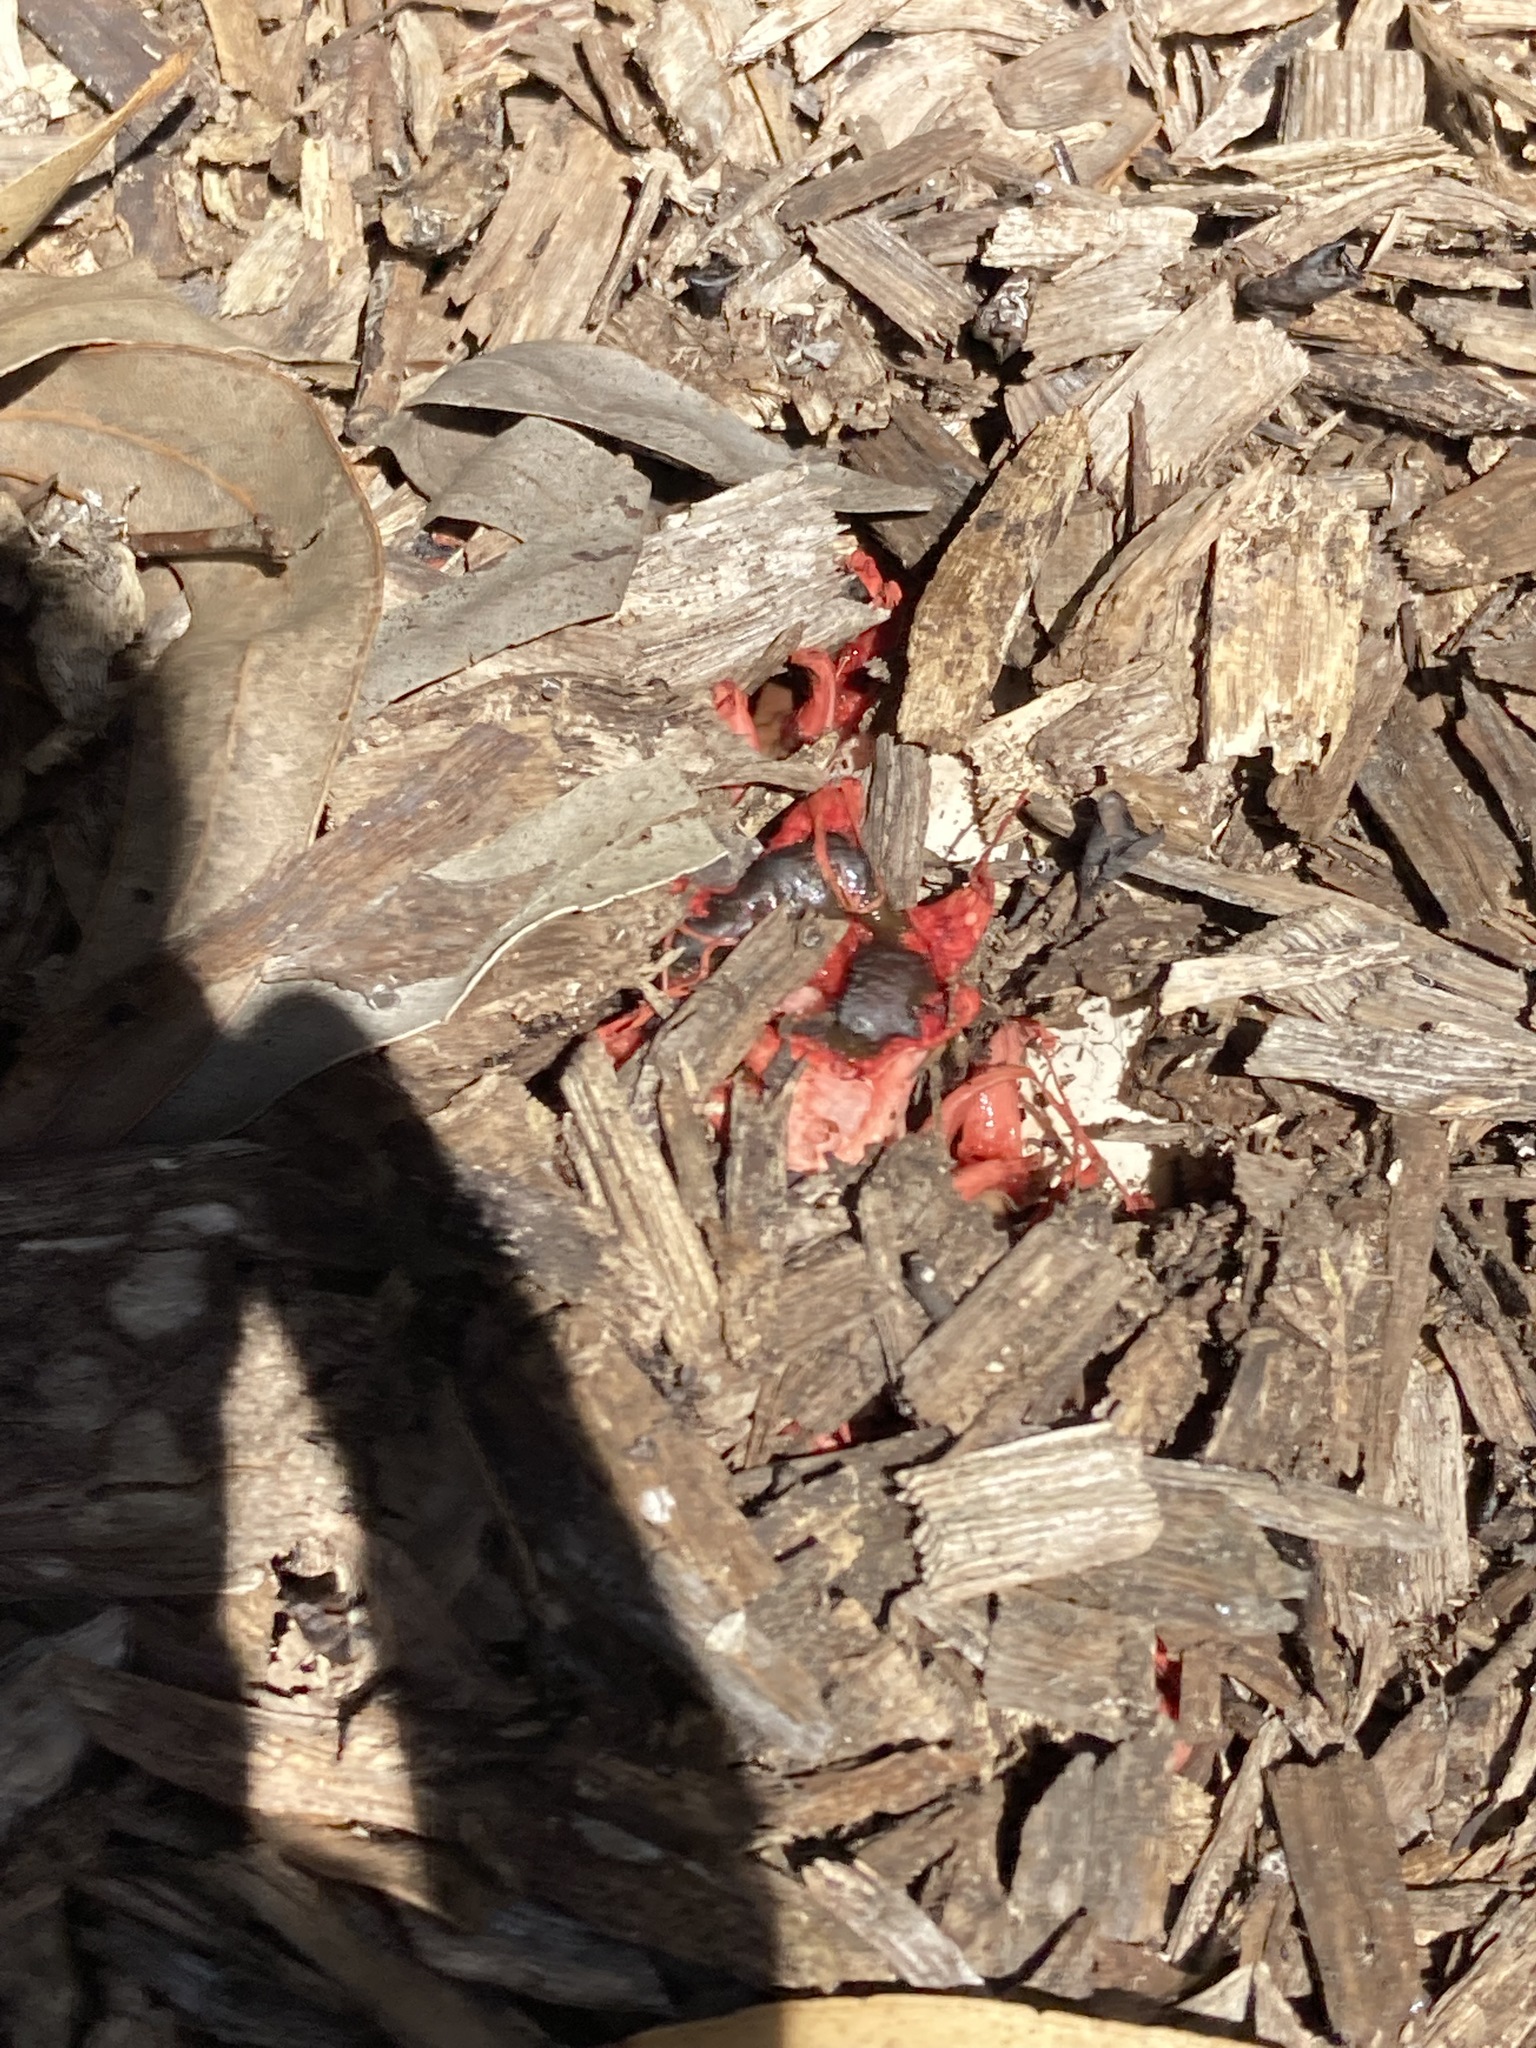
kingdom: Fungi
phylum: Basidiomycota
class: Agaricomycetes
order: Phallales
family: Phallaceae
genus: Aseroe
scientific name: Aseroe rubra
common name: Starfish fungus
